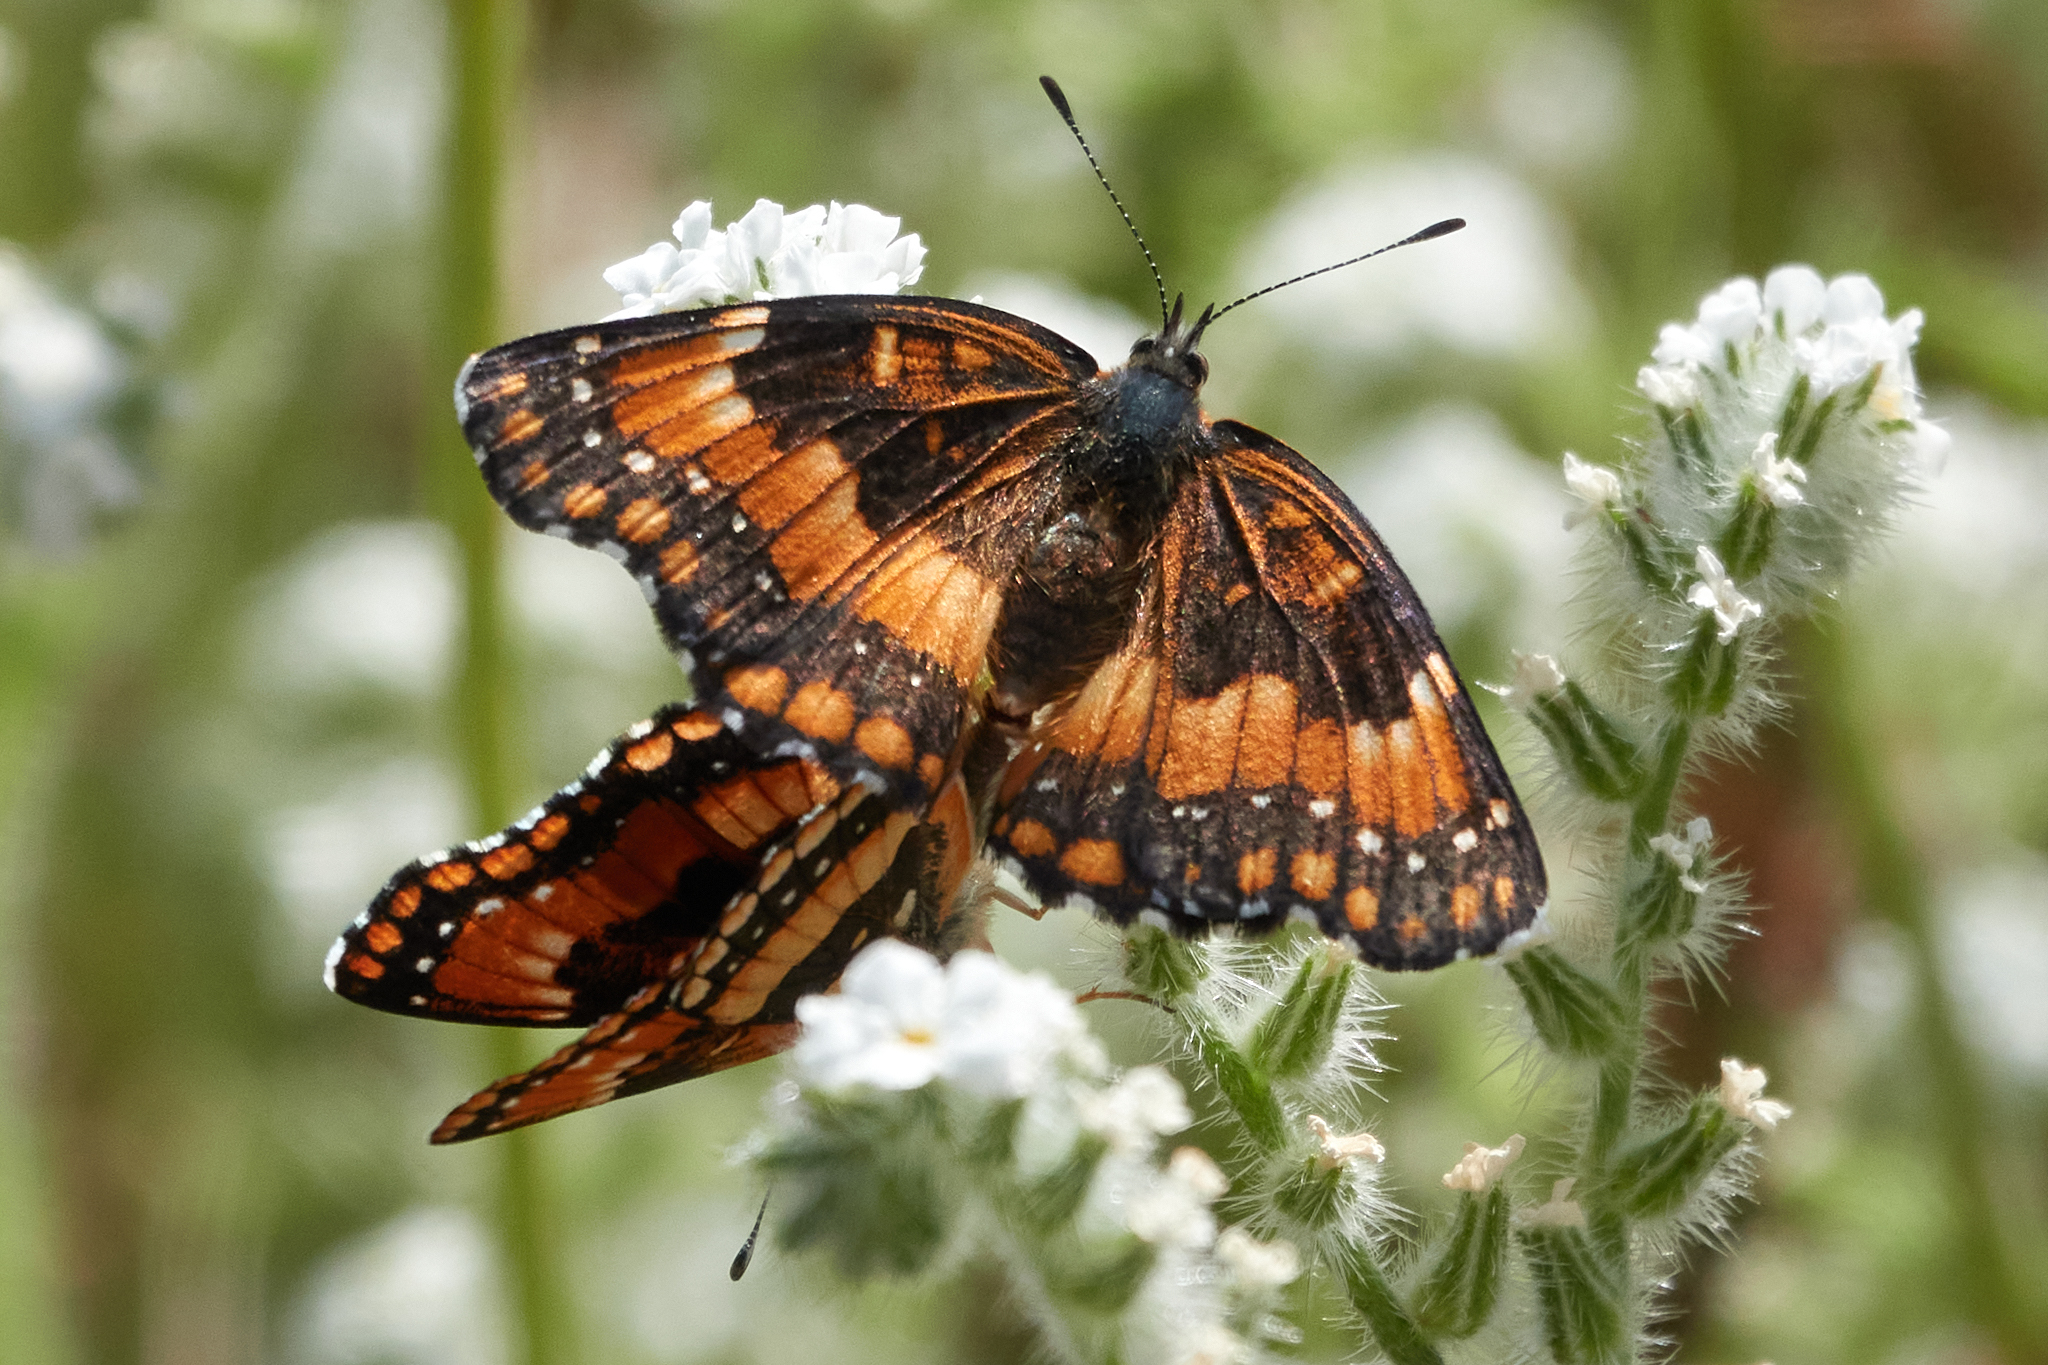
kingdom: Animalia
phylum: Arthropoda
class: Insecta
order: Lepidoptera
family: Nymphalidae
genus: Chlosyne
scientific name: Chlosyne californica
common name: California patch
